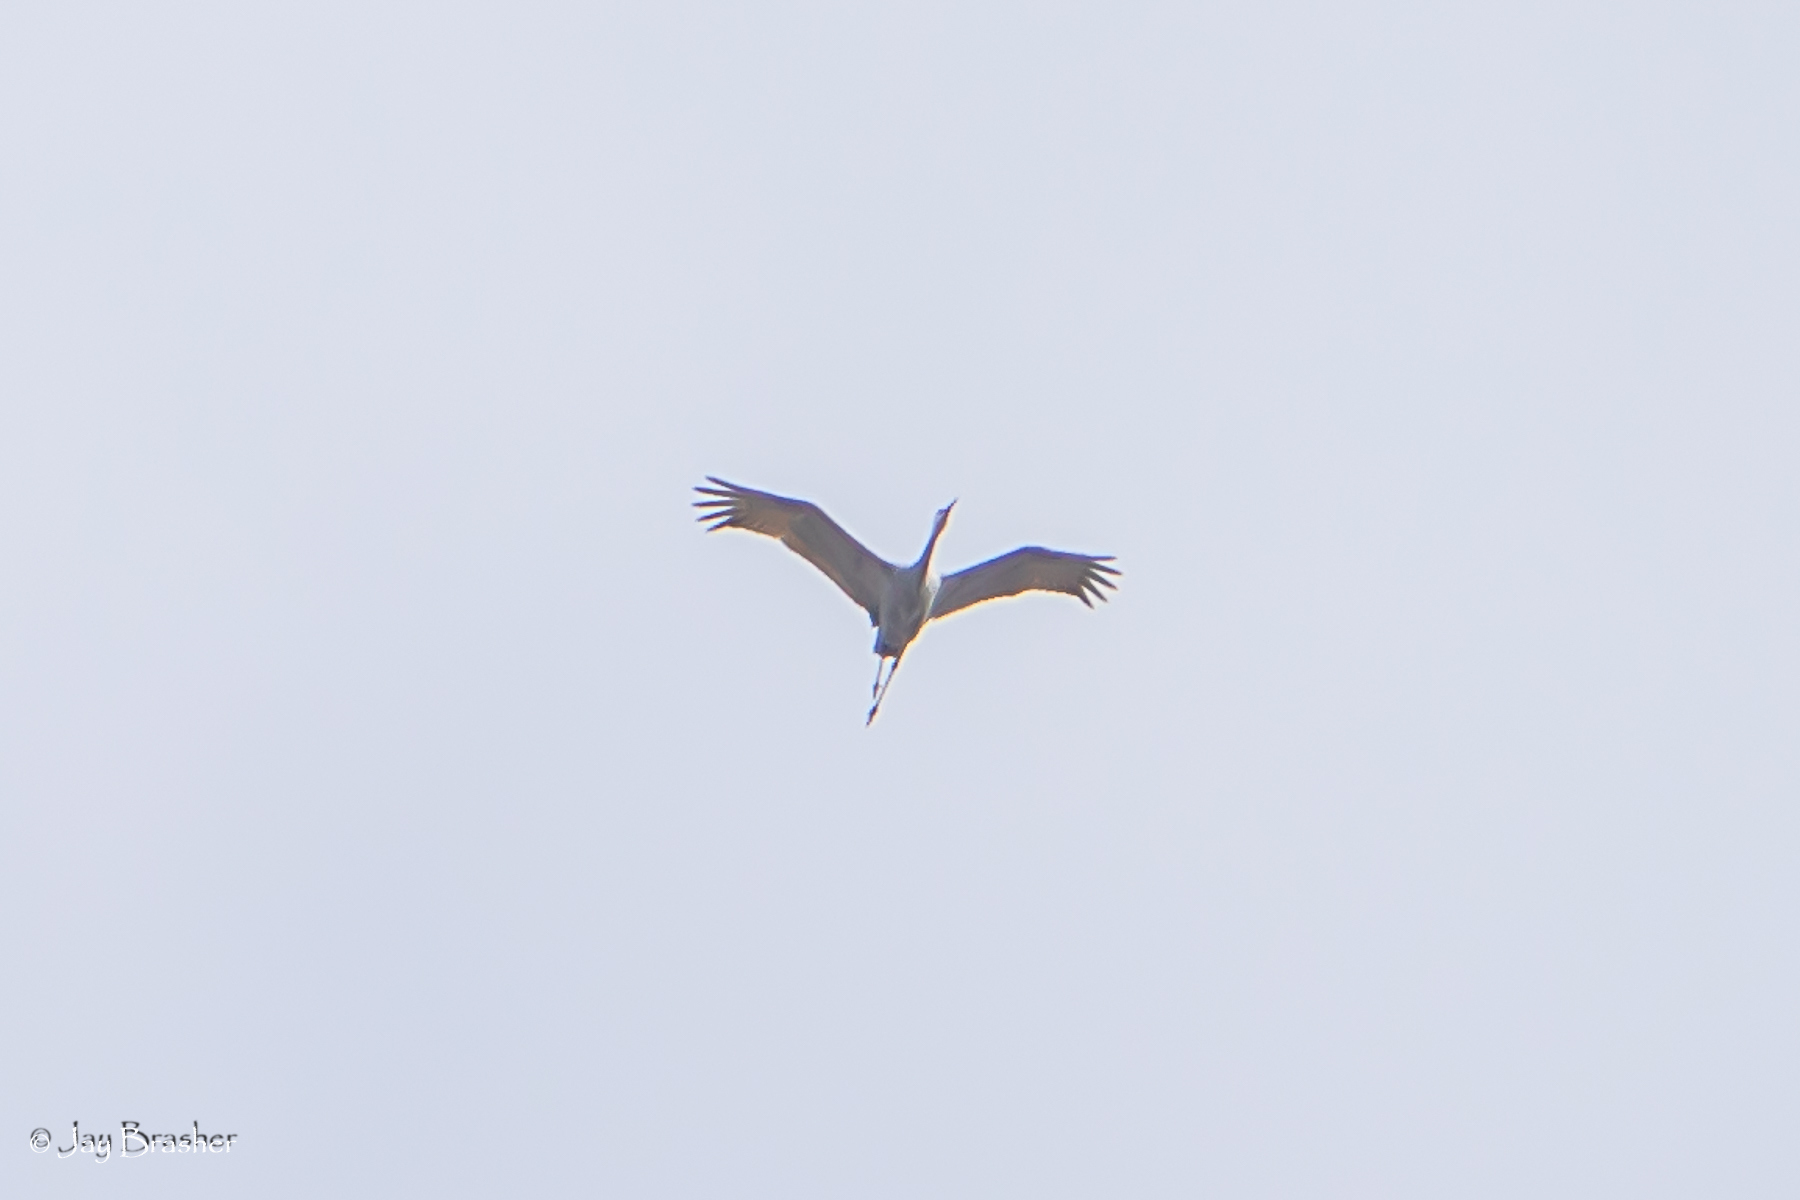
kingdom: Animalia
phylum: Chordata
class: Aves
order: Gruiformes
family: Gruidae
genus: Grus
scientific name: Grus canadensis
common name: Sandhill crane
